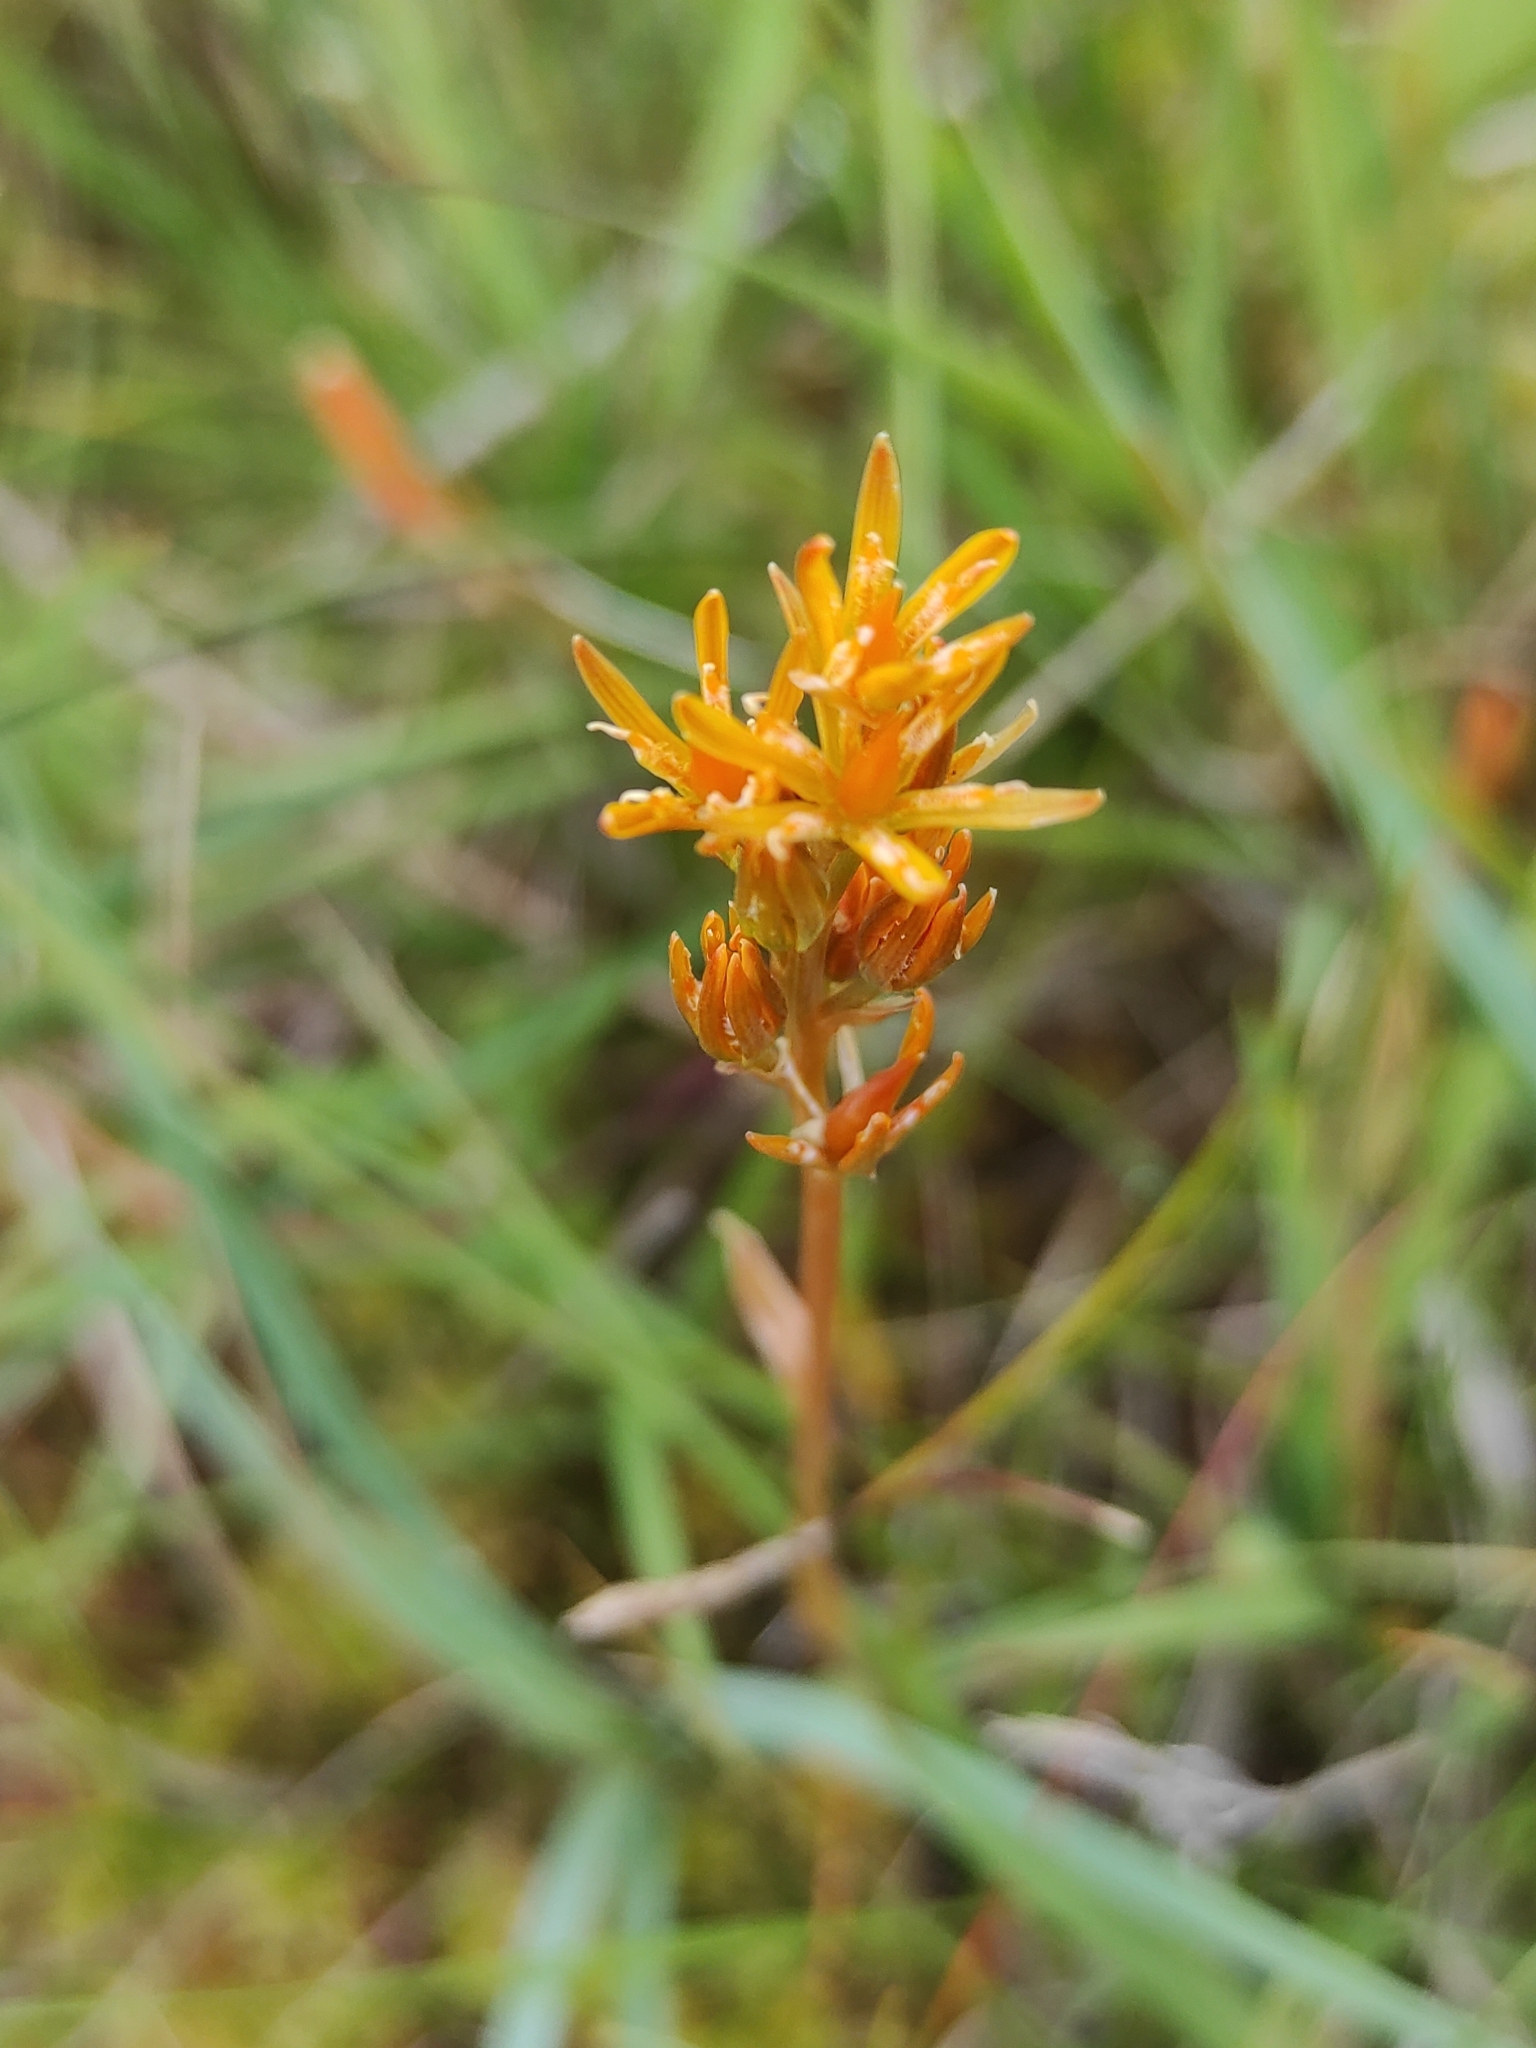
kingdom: Plantae
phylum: Tracheophyta
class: Liliopsida
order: Dioscoreales
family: Nartheciaceae
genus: Narthecium
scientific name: Narthecium ossifragum
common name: Bog asphodel
